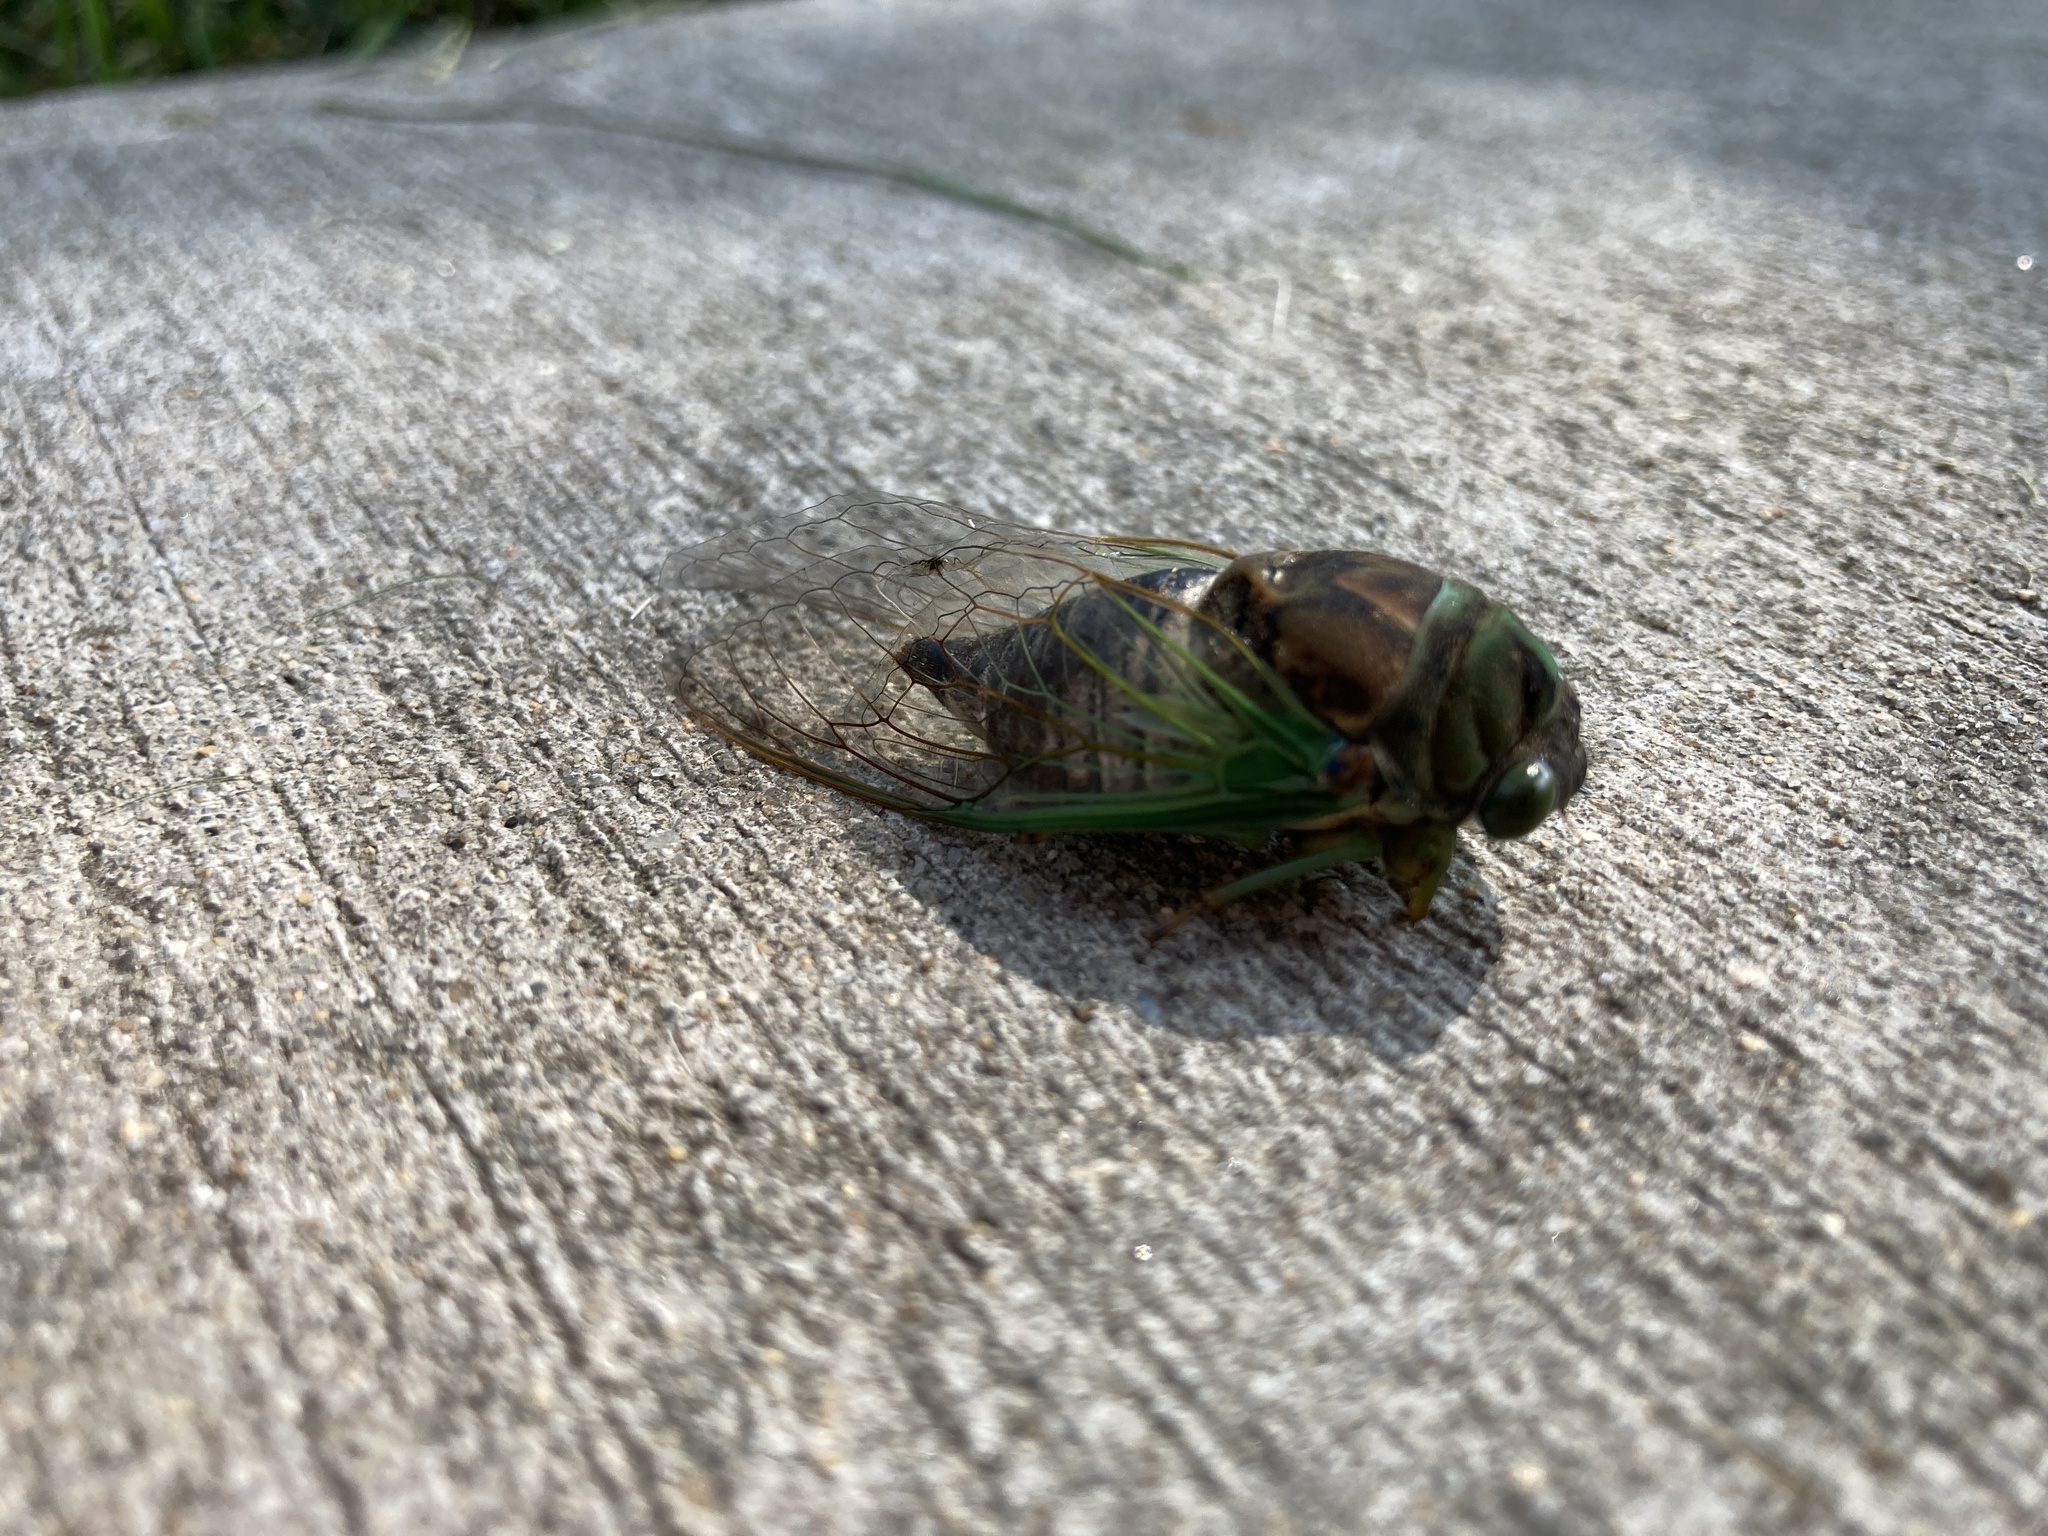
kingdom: Animalia
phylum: Arthropoda
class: Insecta
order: Hemiptera
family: Cicadidae
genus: Neotibicen
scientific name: Neotibicen tibicen
